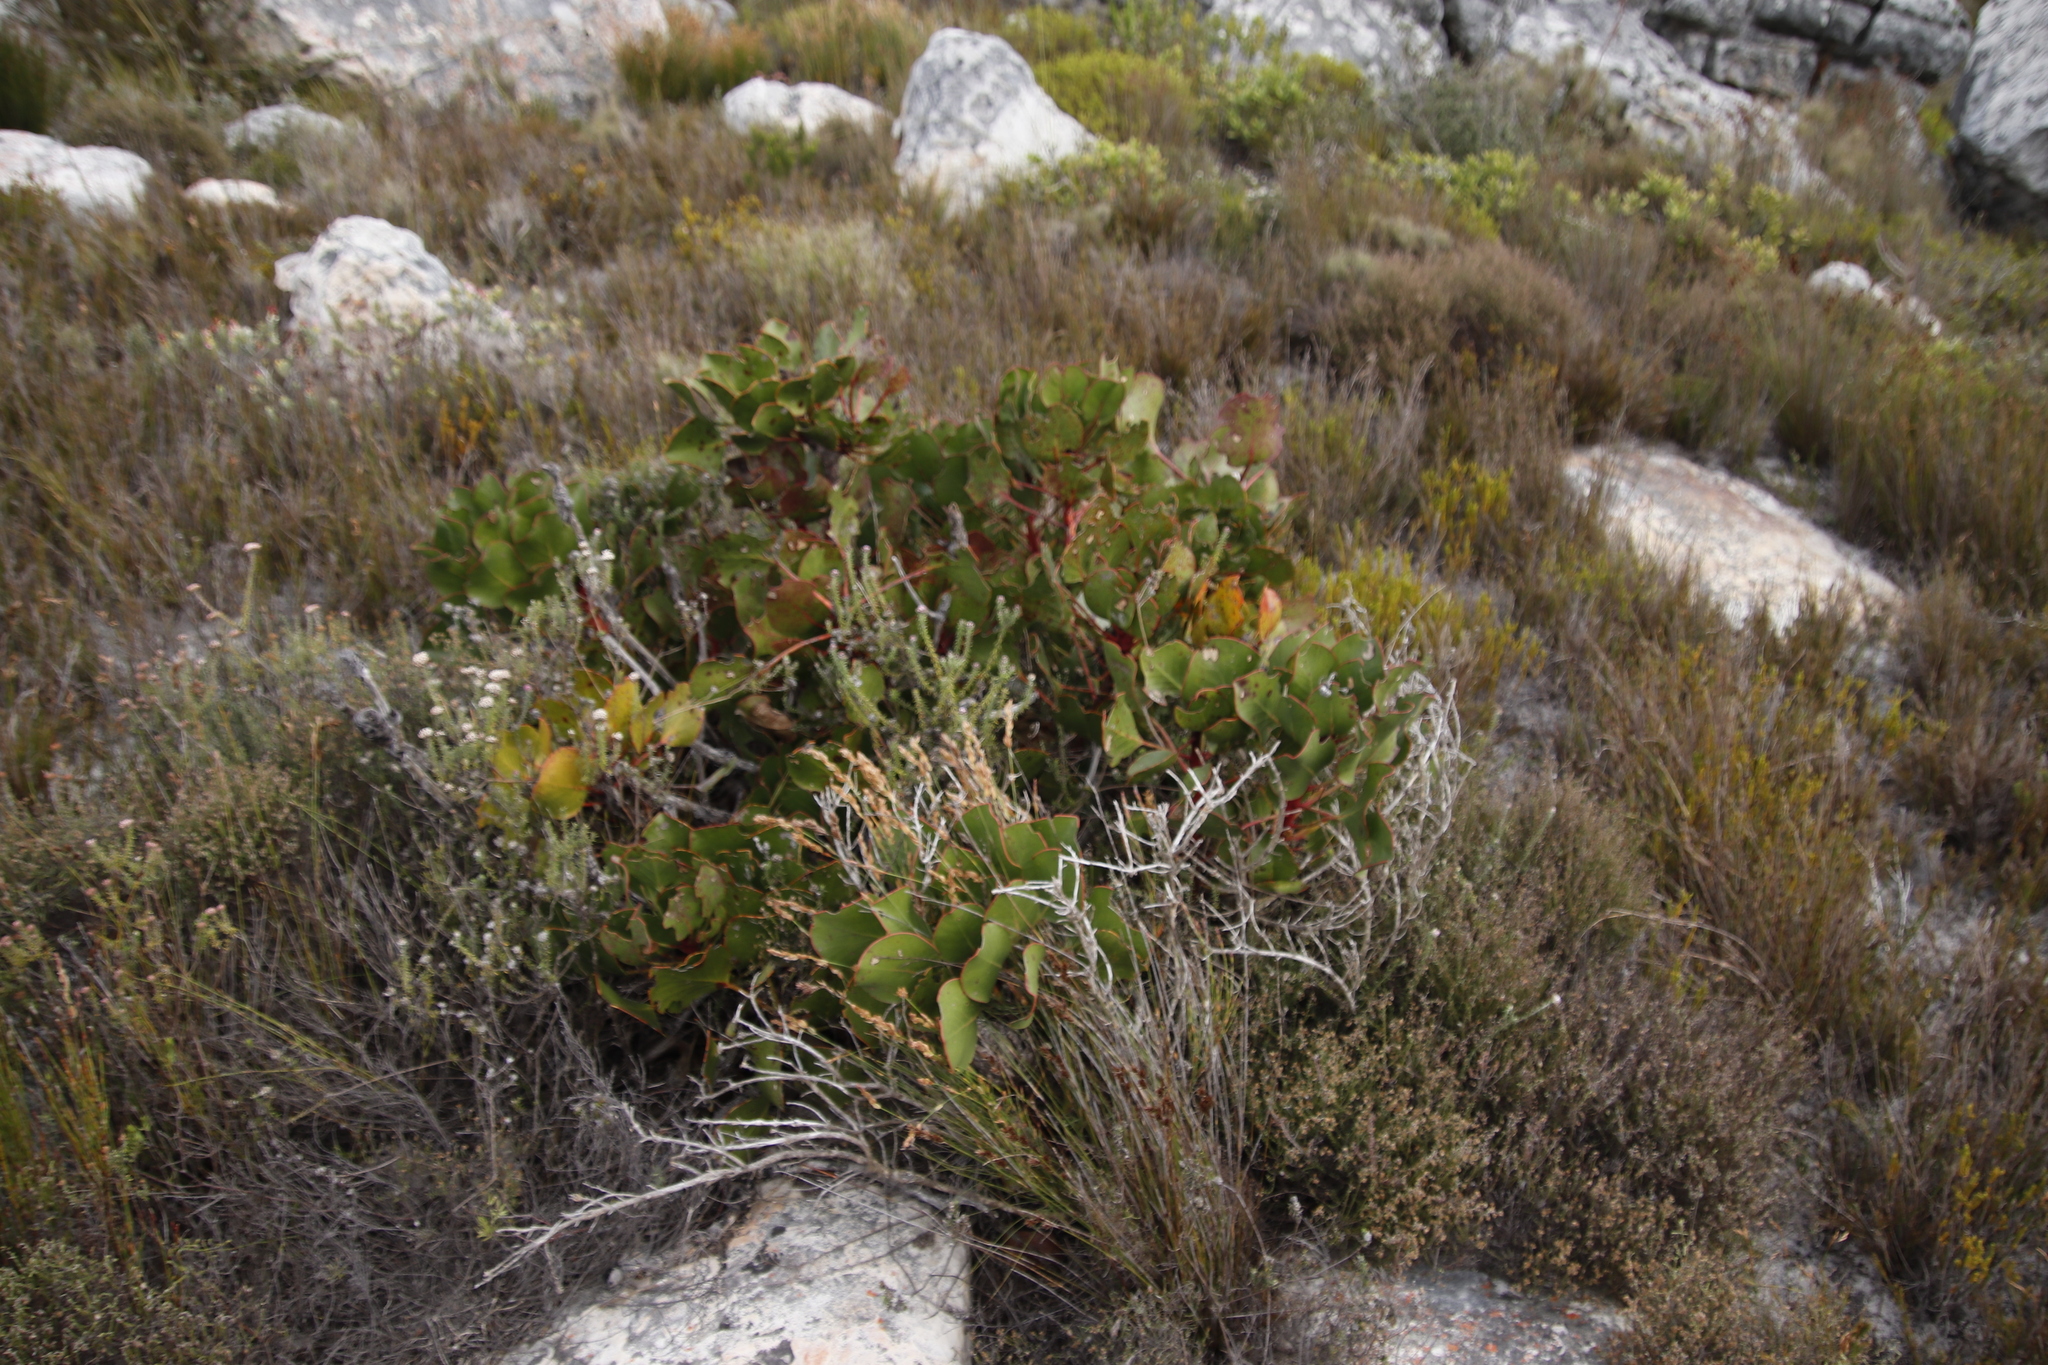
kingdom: Plantae
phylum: Tracheophyta
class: Magnoliopsida
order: Proteales
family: Proteaceae
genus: Protea
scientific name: Protea cynaroides
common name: King protea
